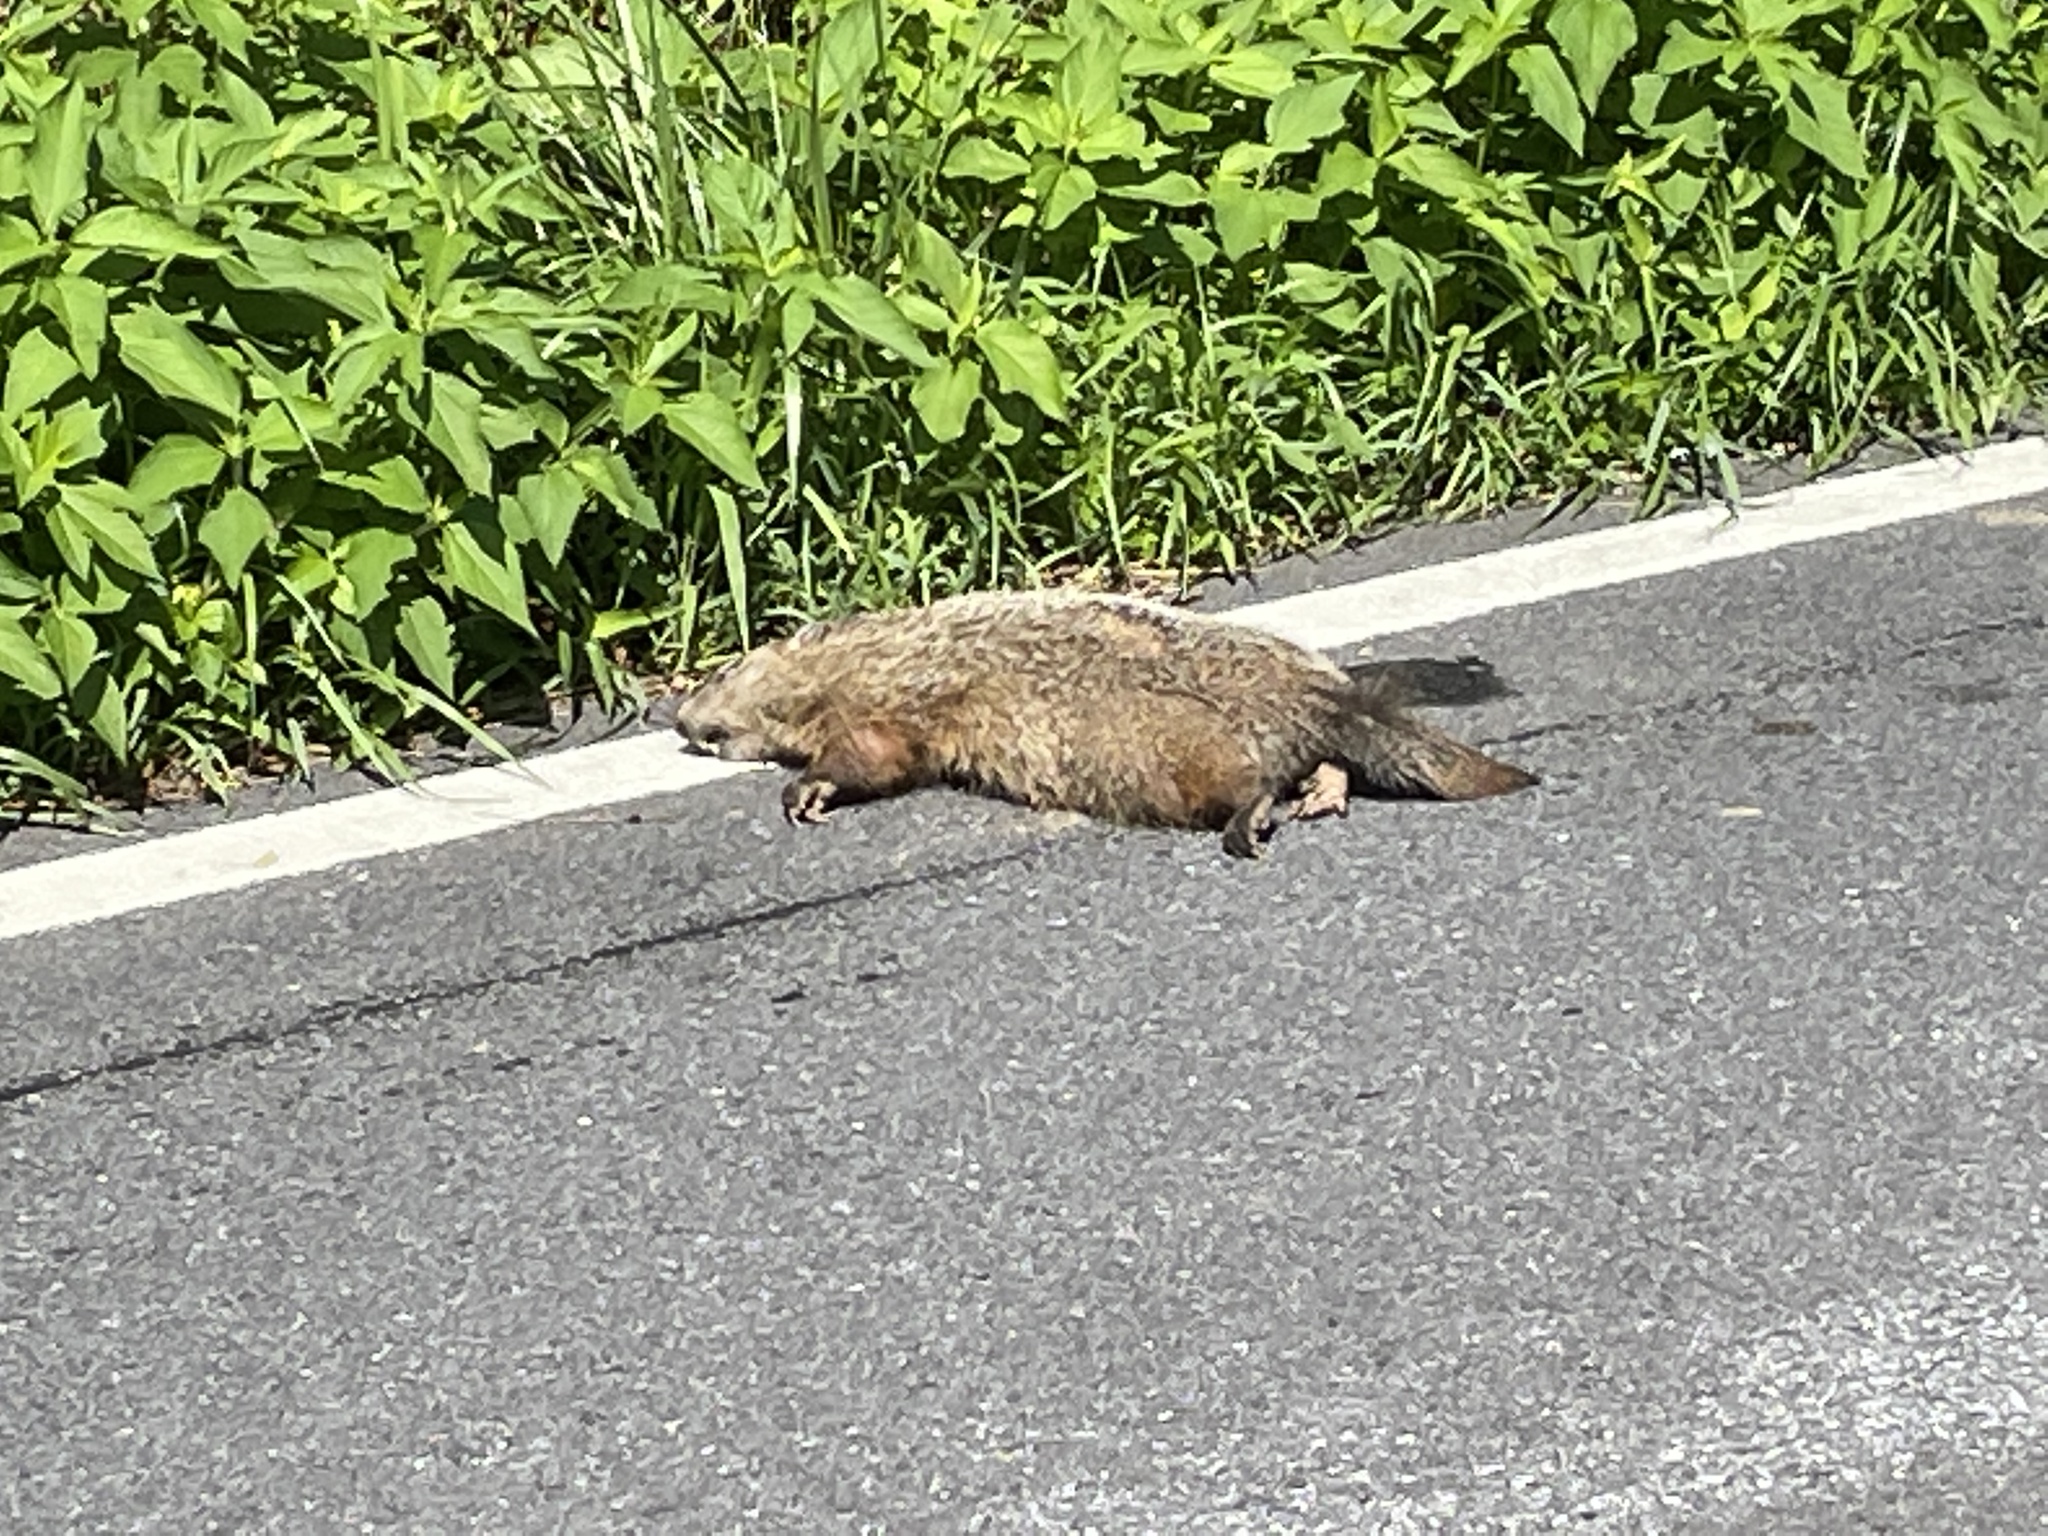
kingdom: Animalia
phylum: Chordata
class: Mammalia
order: Rodentia
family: Sciuridae
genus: Marmota
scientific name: Marmota monax
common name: Groundhog
